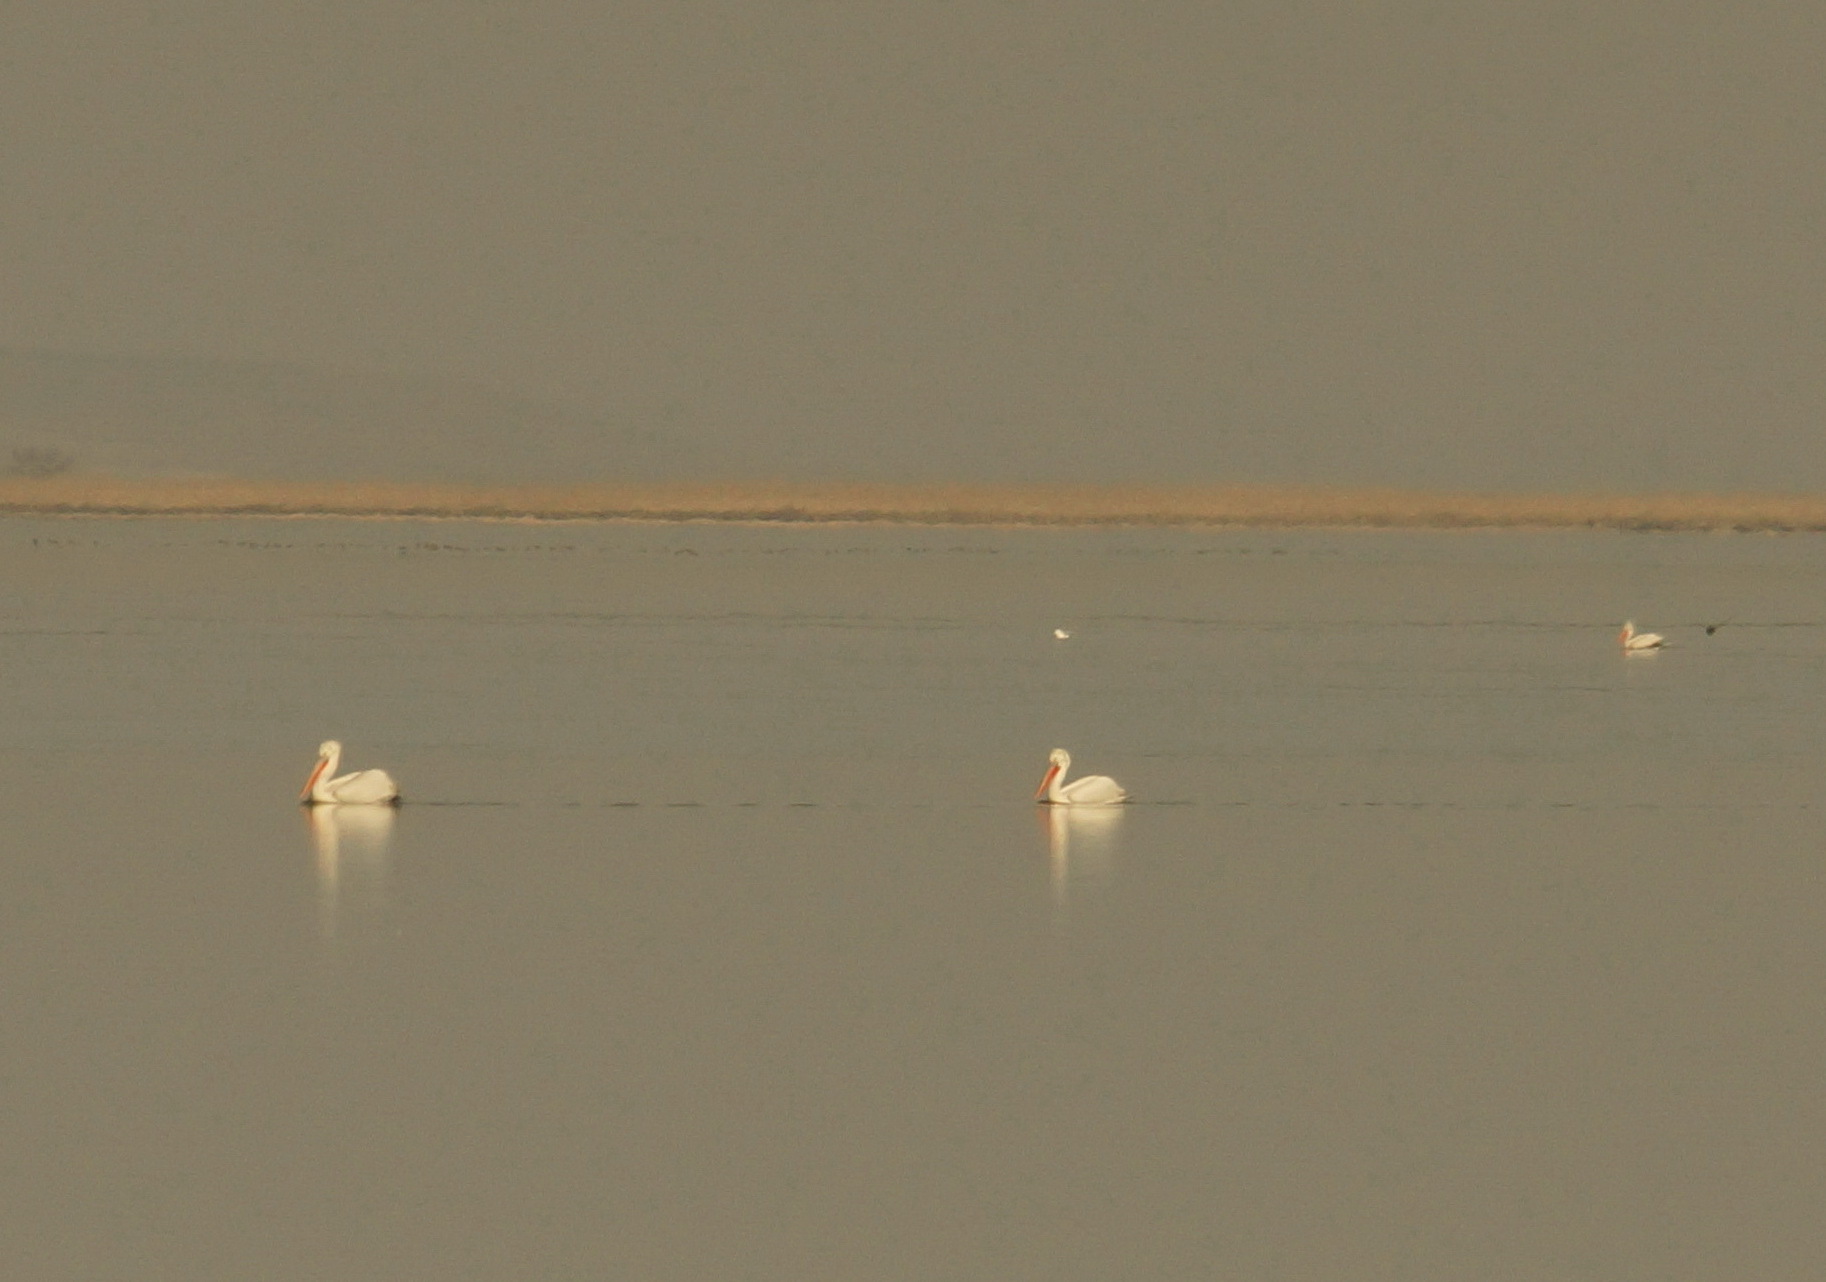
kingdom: Animalia
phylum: Chordata
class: Aves
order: Pelecaniformes
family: Pelecanidae
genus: Pelecanus
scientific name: Pelecanus crispus
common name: Dalmatian pelican
